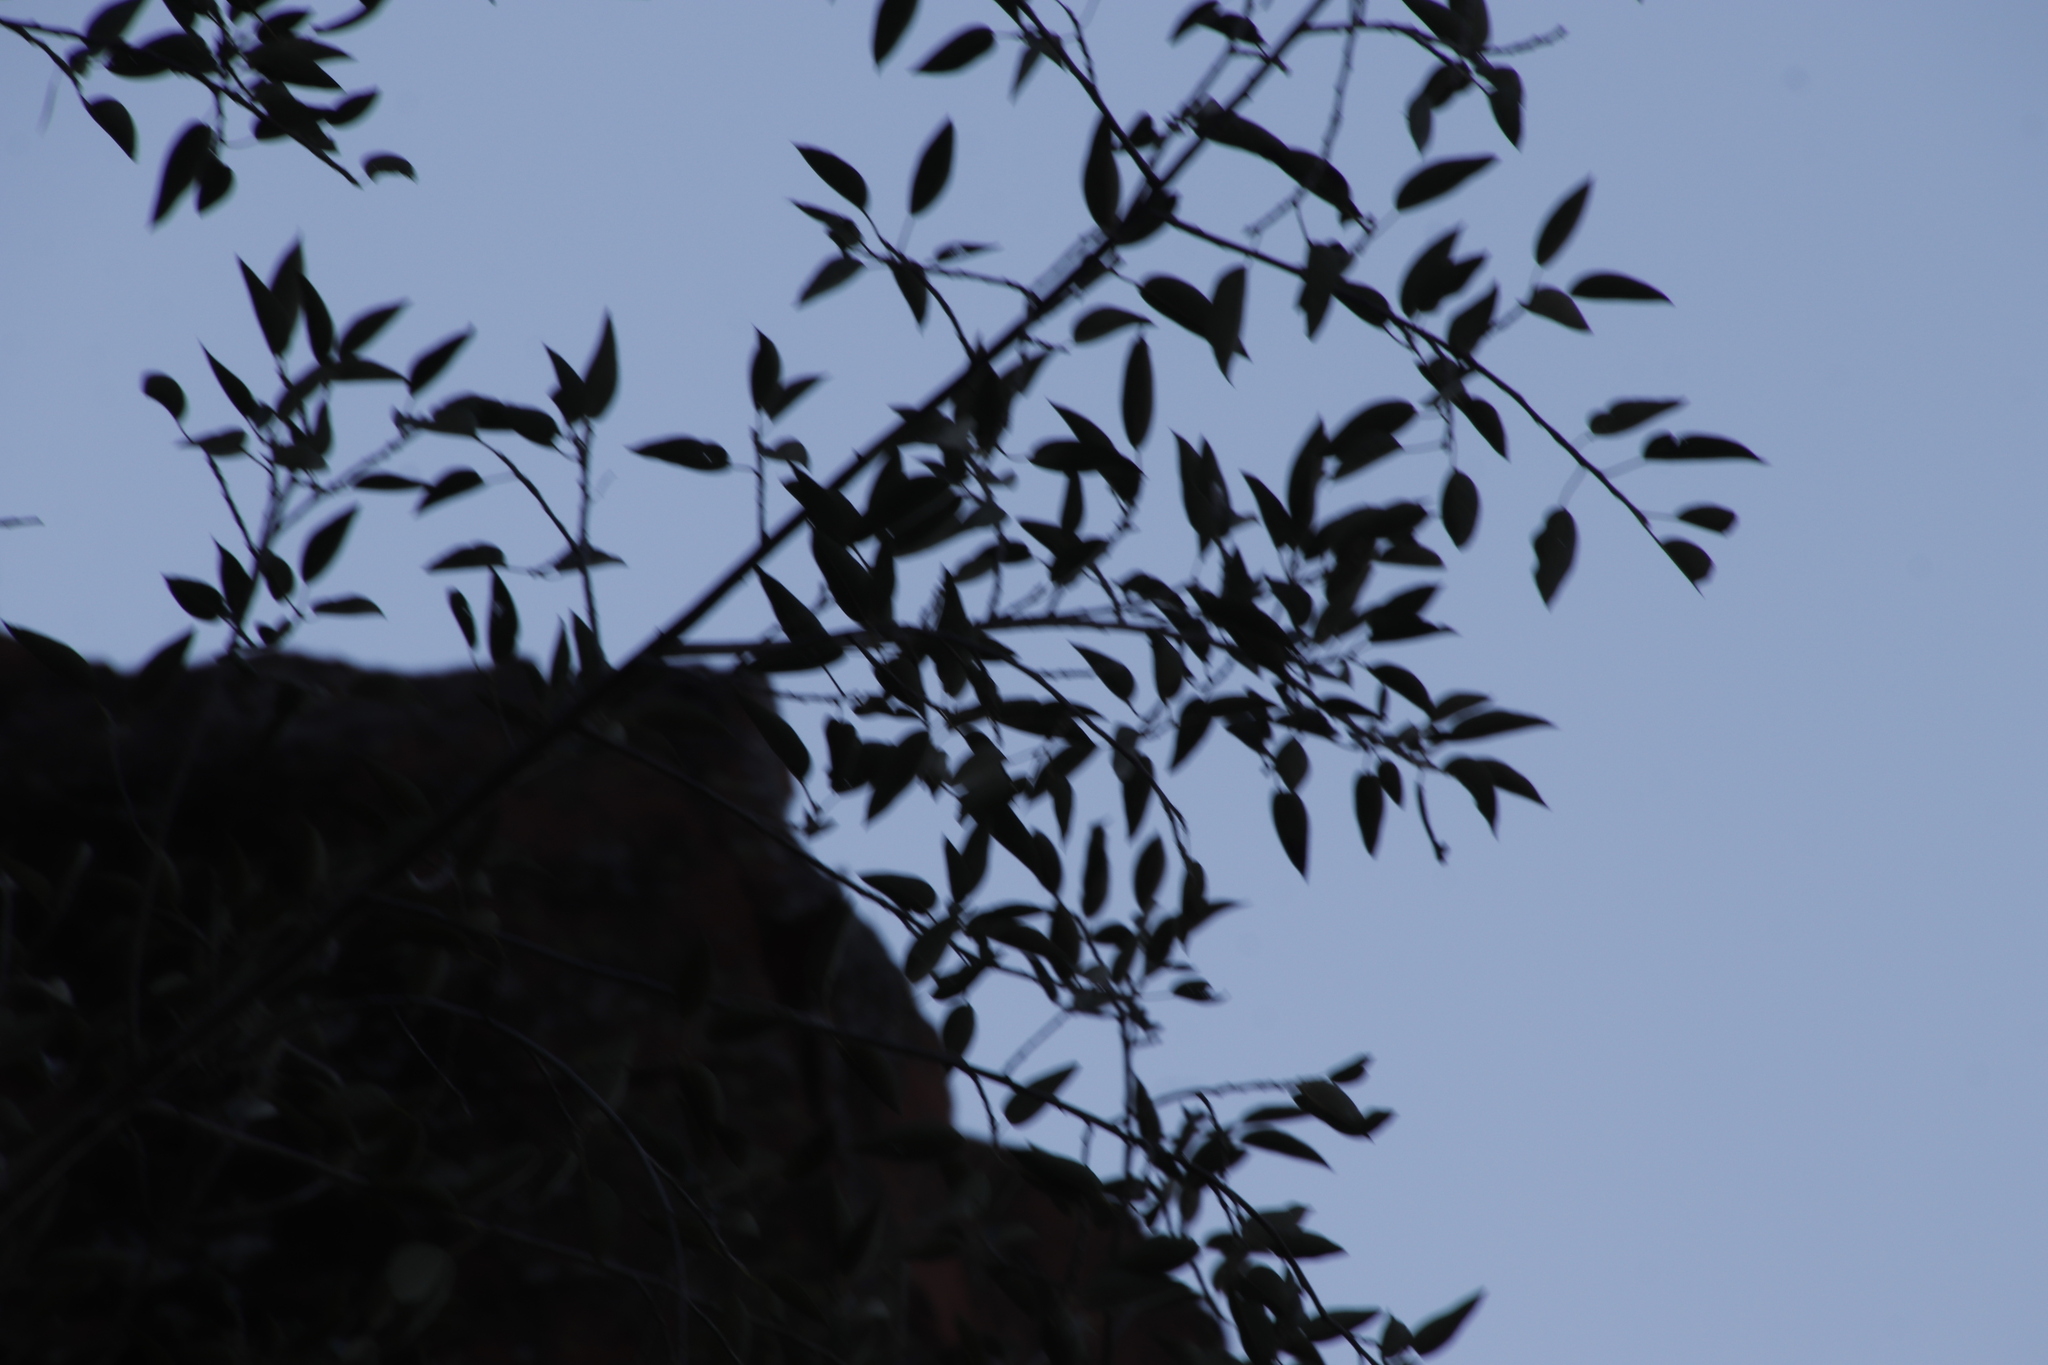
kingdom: Plantae
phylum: Tracheophyta
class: Magnoliopsida
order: Rosales
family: Moraceae
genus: Ficus
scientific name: Ficus cordata
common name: Namaqua rock fig
